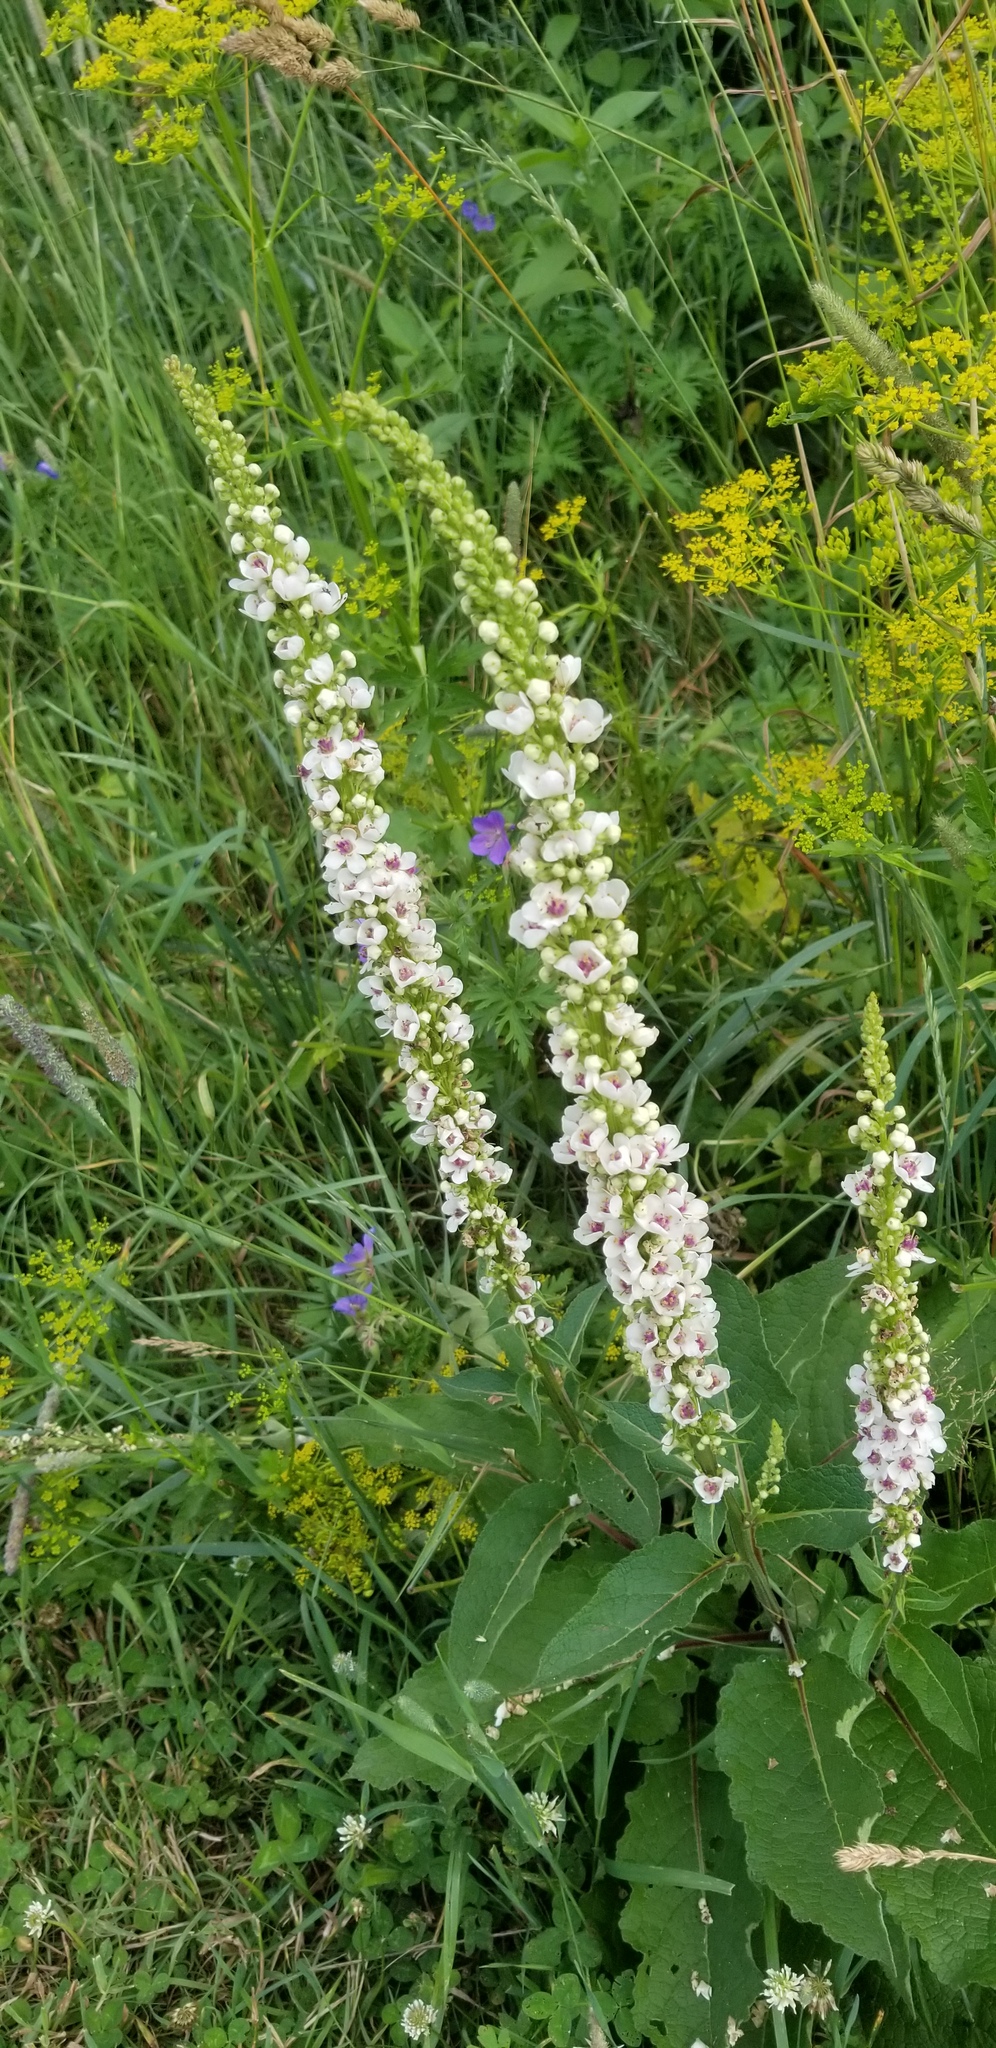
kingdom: Plantae
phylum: Tracheophyta
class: Magnoliopsida
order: Lamiales
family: Scrophulariaceae
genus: Verbascum
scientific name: Verbascum nigrum
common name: Dark mullein
